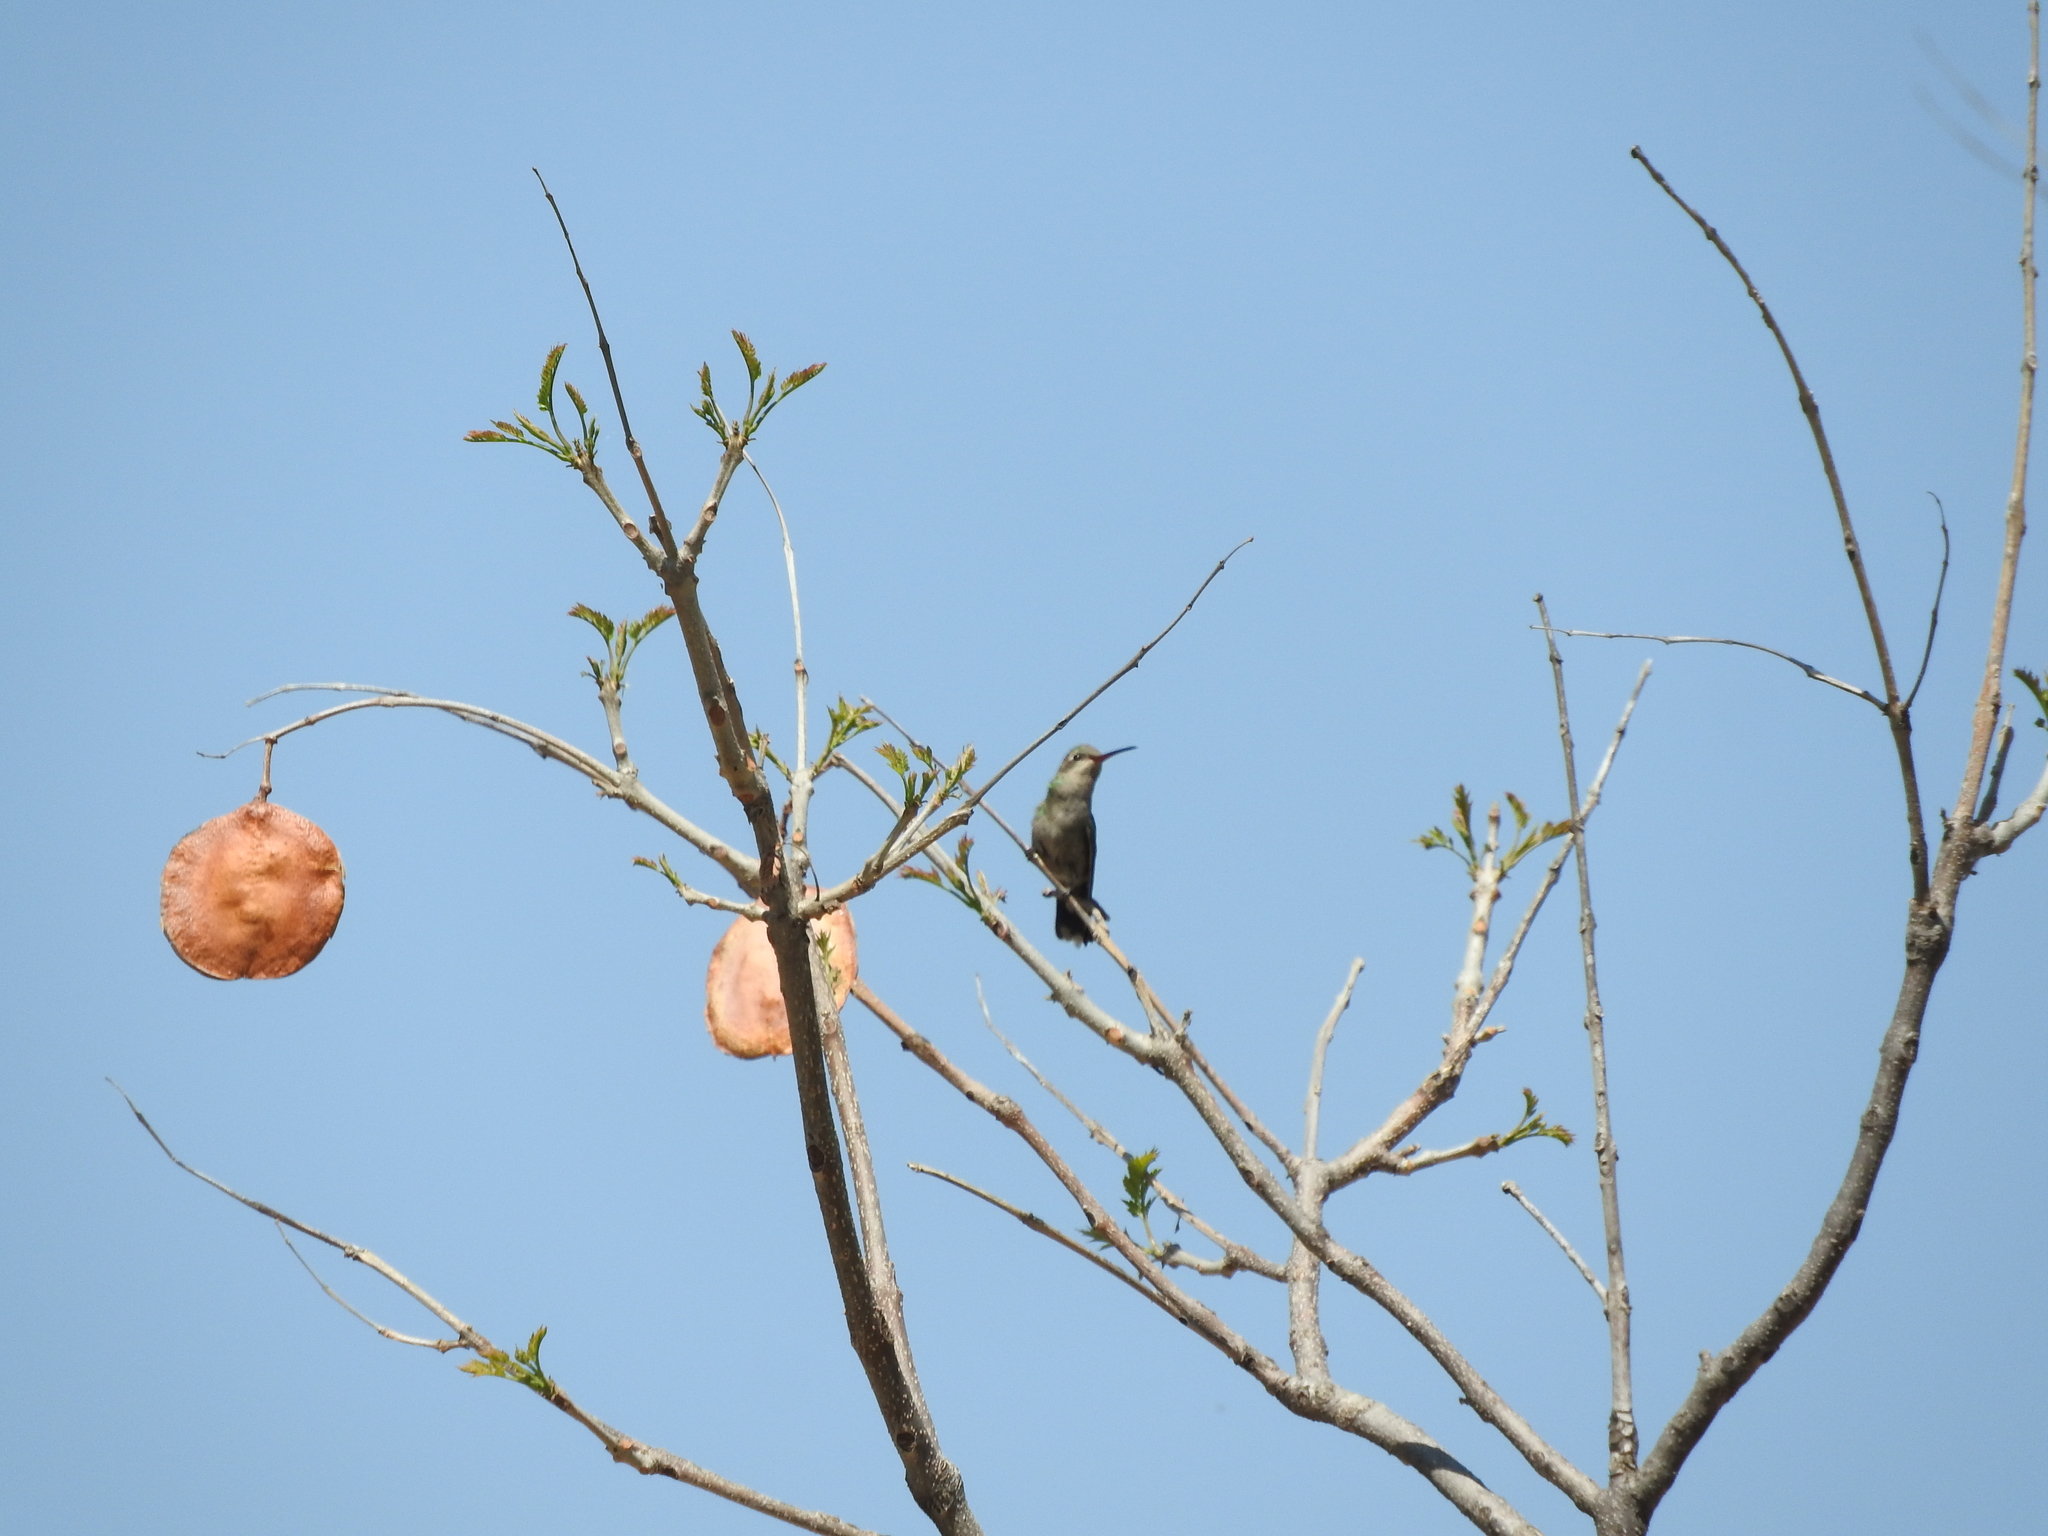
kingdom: Animalia
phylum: Chordata
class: Aves
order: Apodiformes
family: Trochilidae
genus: Cynanthus
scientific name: Cynanthus latirostris
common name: Broad-billed hummingbird
